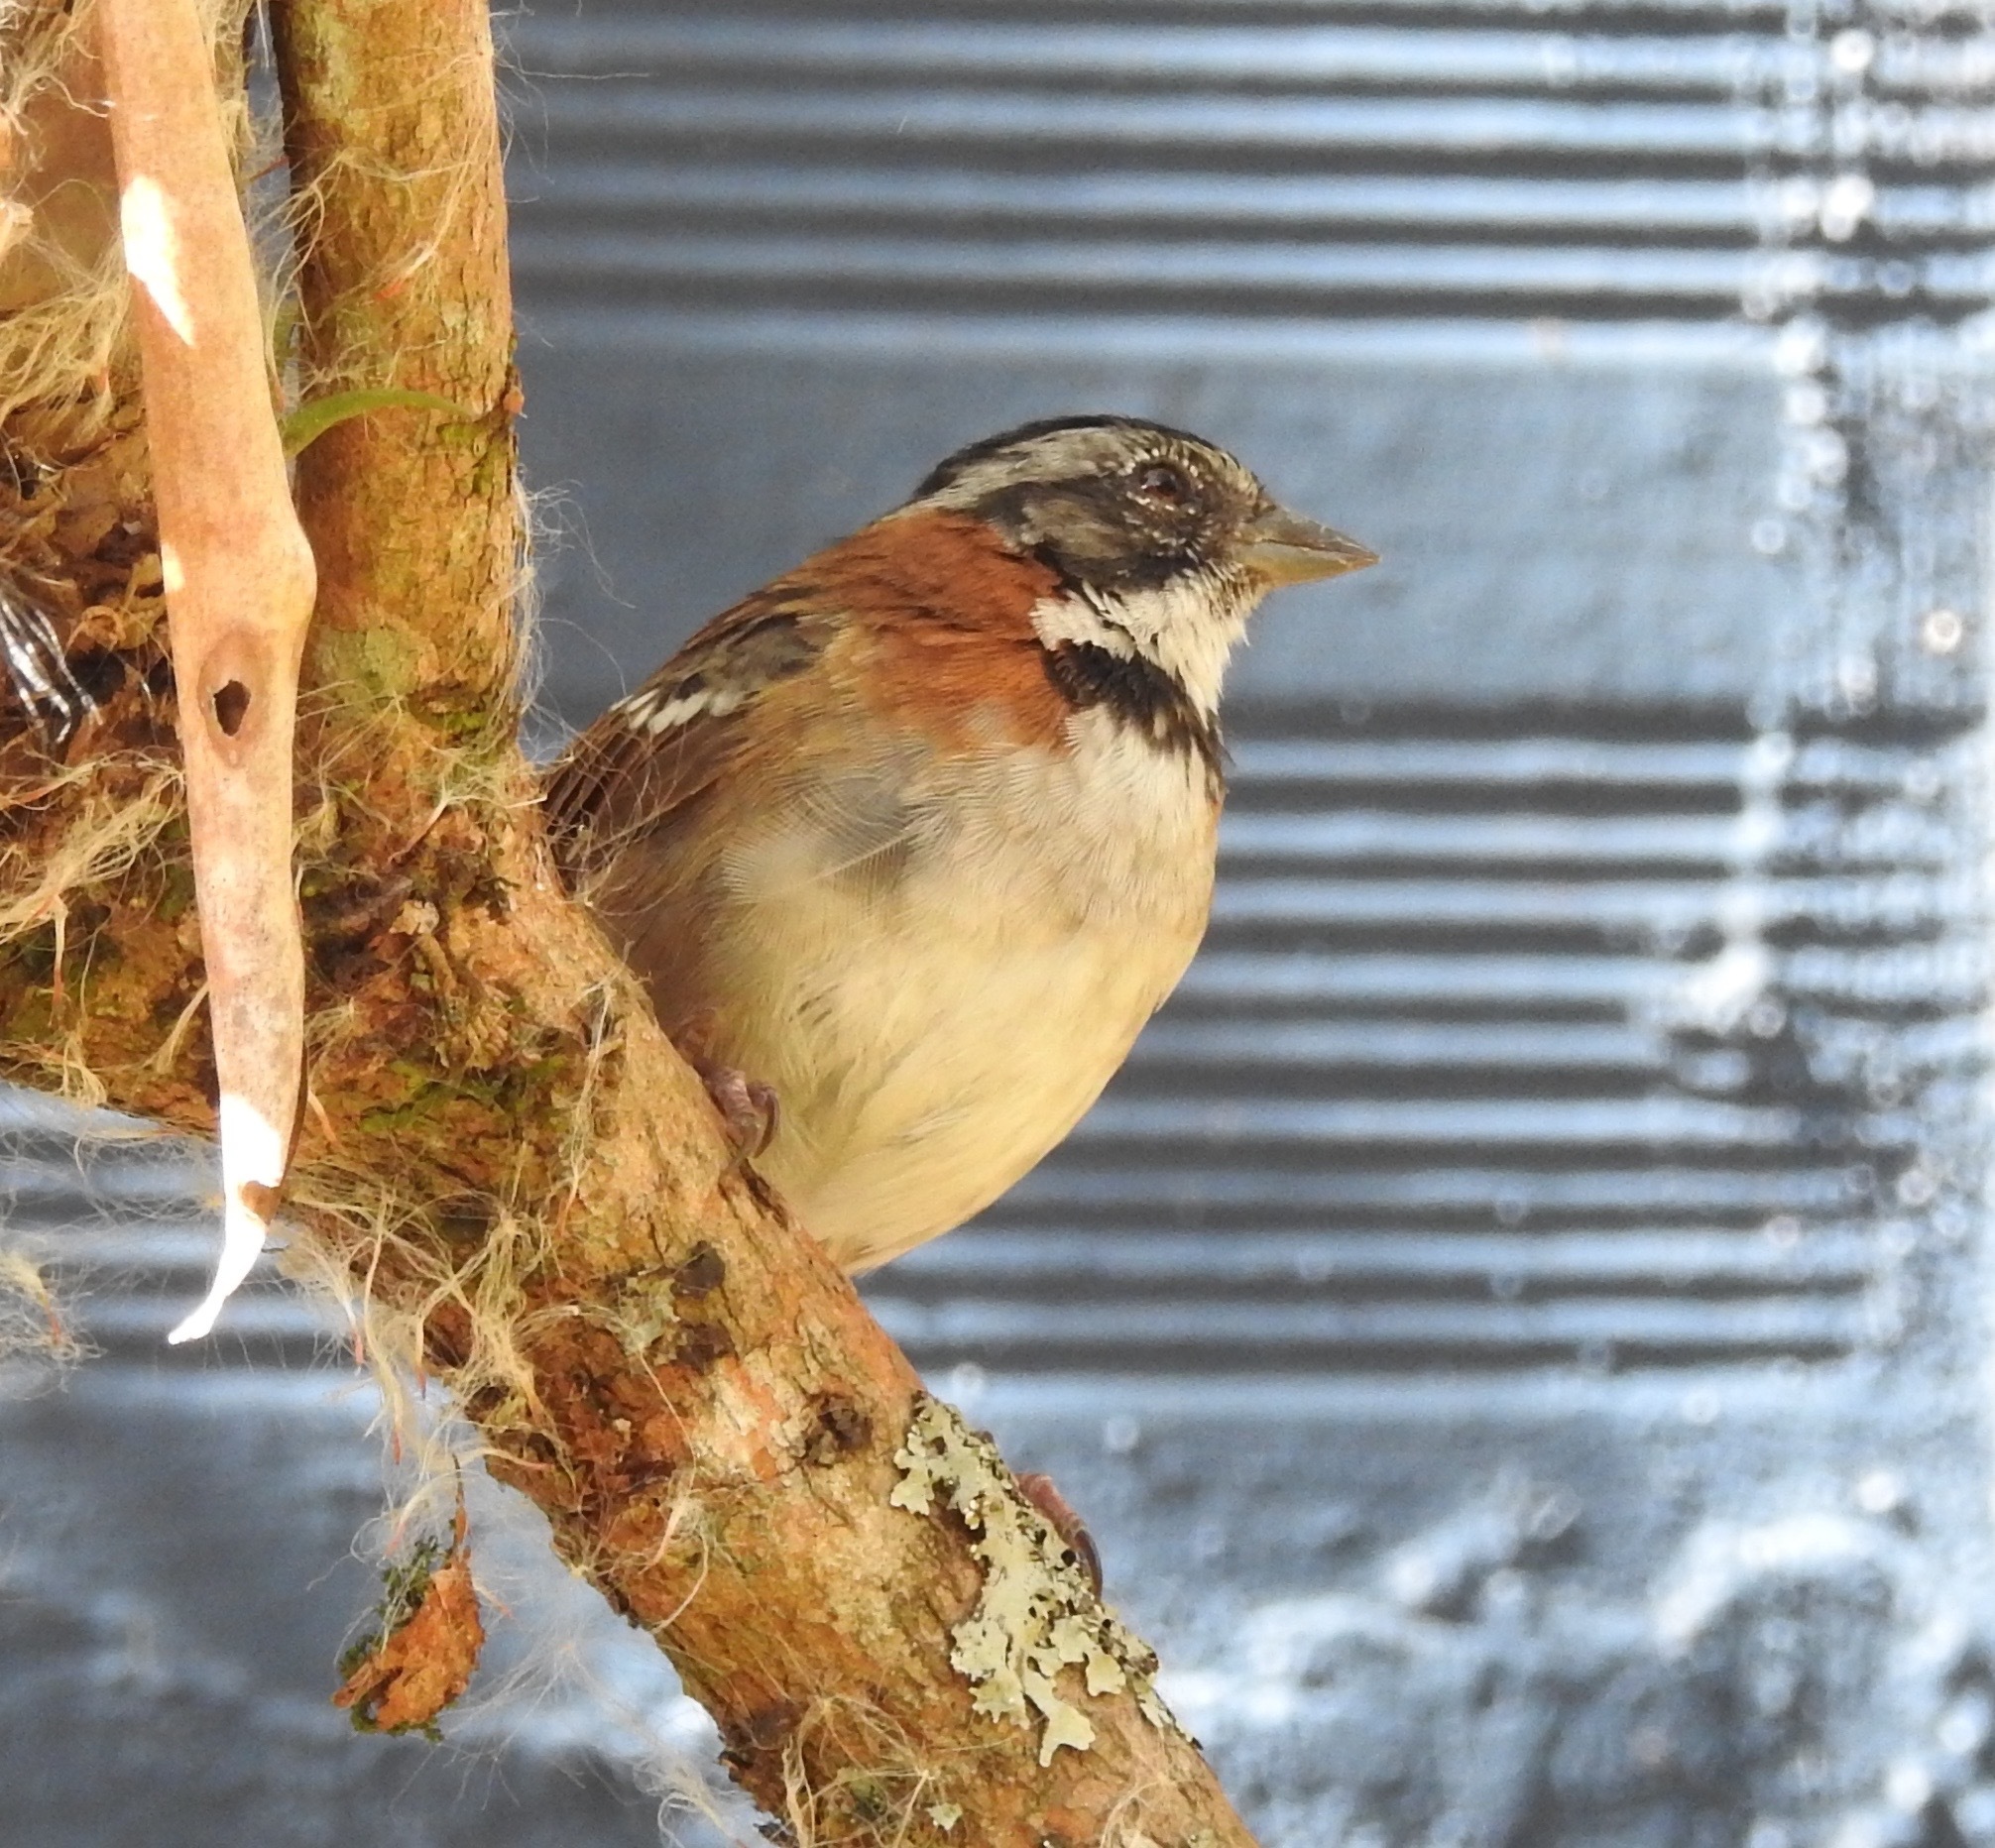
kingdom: Animalia
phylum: Chordata
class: Aves
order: Passeriformes
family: Passerellidae
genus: Zonotrichia
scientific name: Zonotrichia capensis
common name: Rufous-collared sparrow
